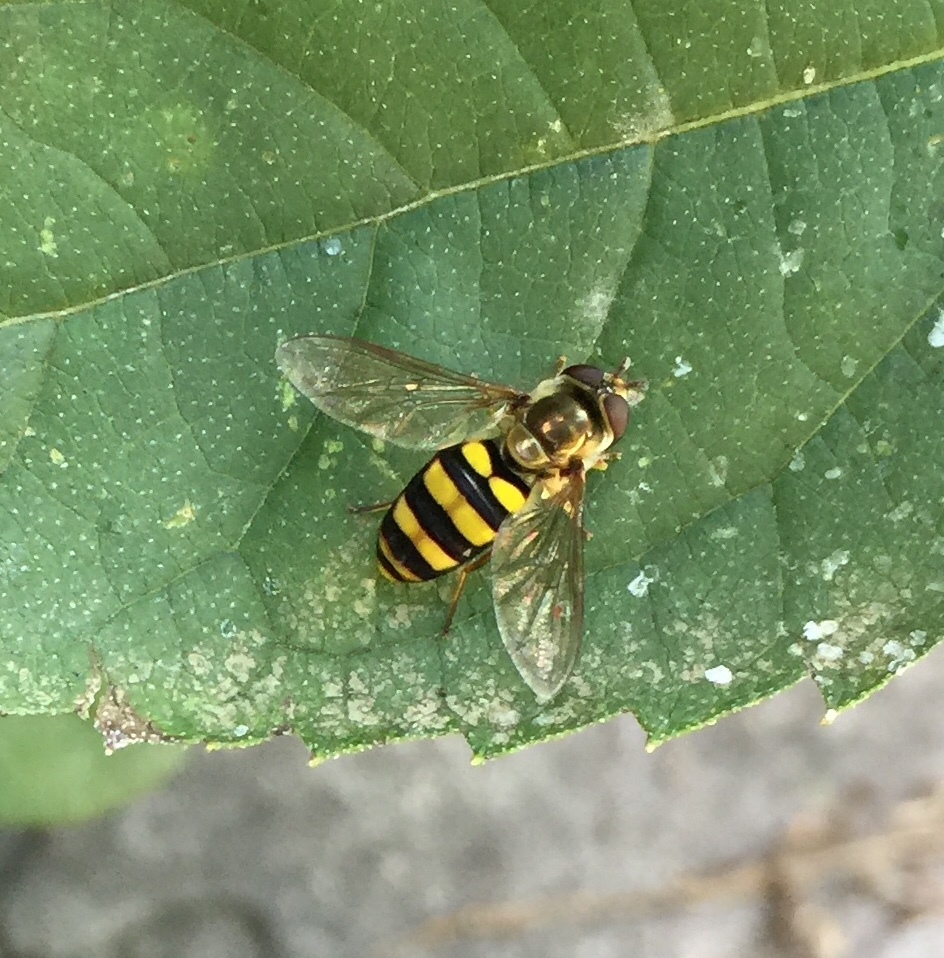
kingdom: Animalia
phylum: Arthropoda
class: Insecta
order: Diptera
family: Syrphidae
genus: Eupeodes
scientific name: Eupeodes
